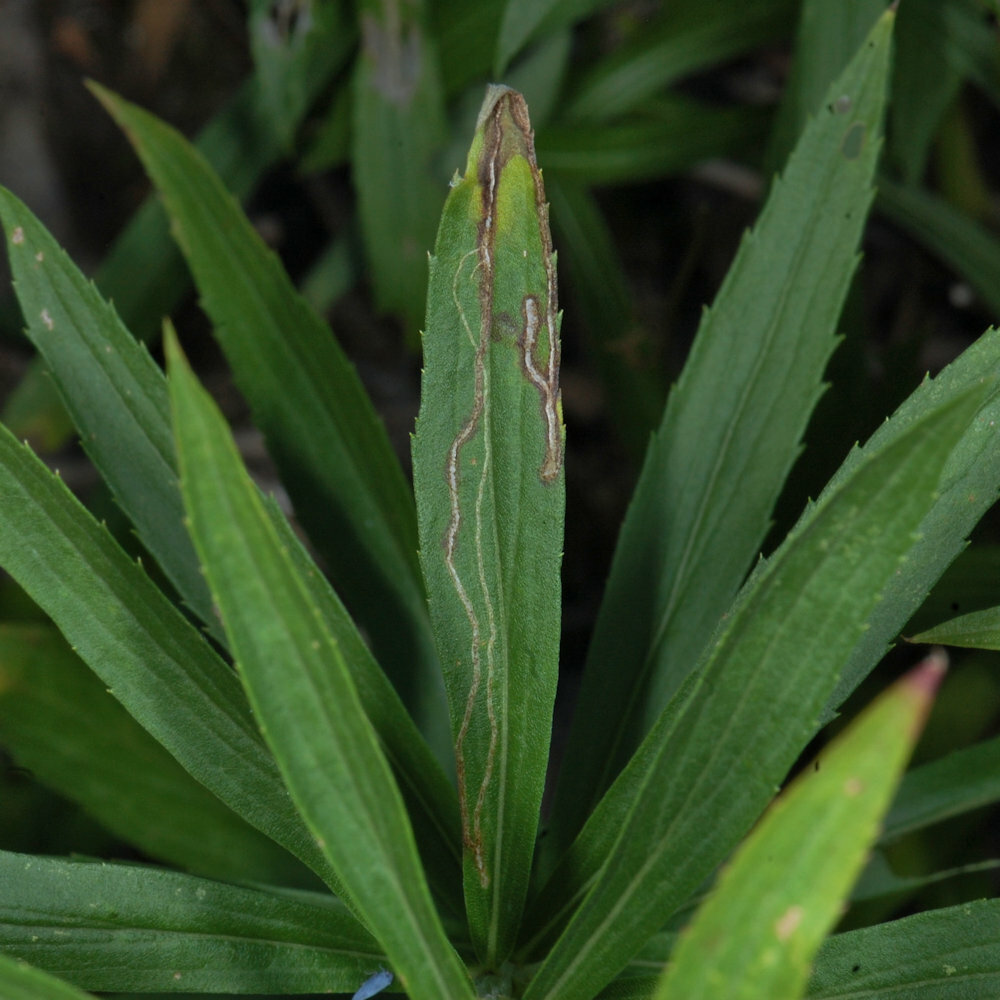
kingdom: Animalia
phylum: Arthropoda
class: Insecta
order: Diptera
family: Agromyzidae
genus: Ophiomyia
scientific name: Ophiomyia maura
